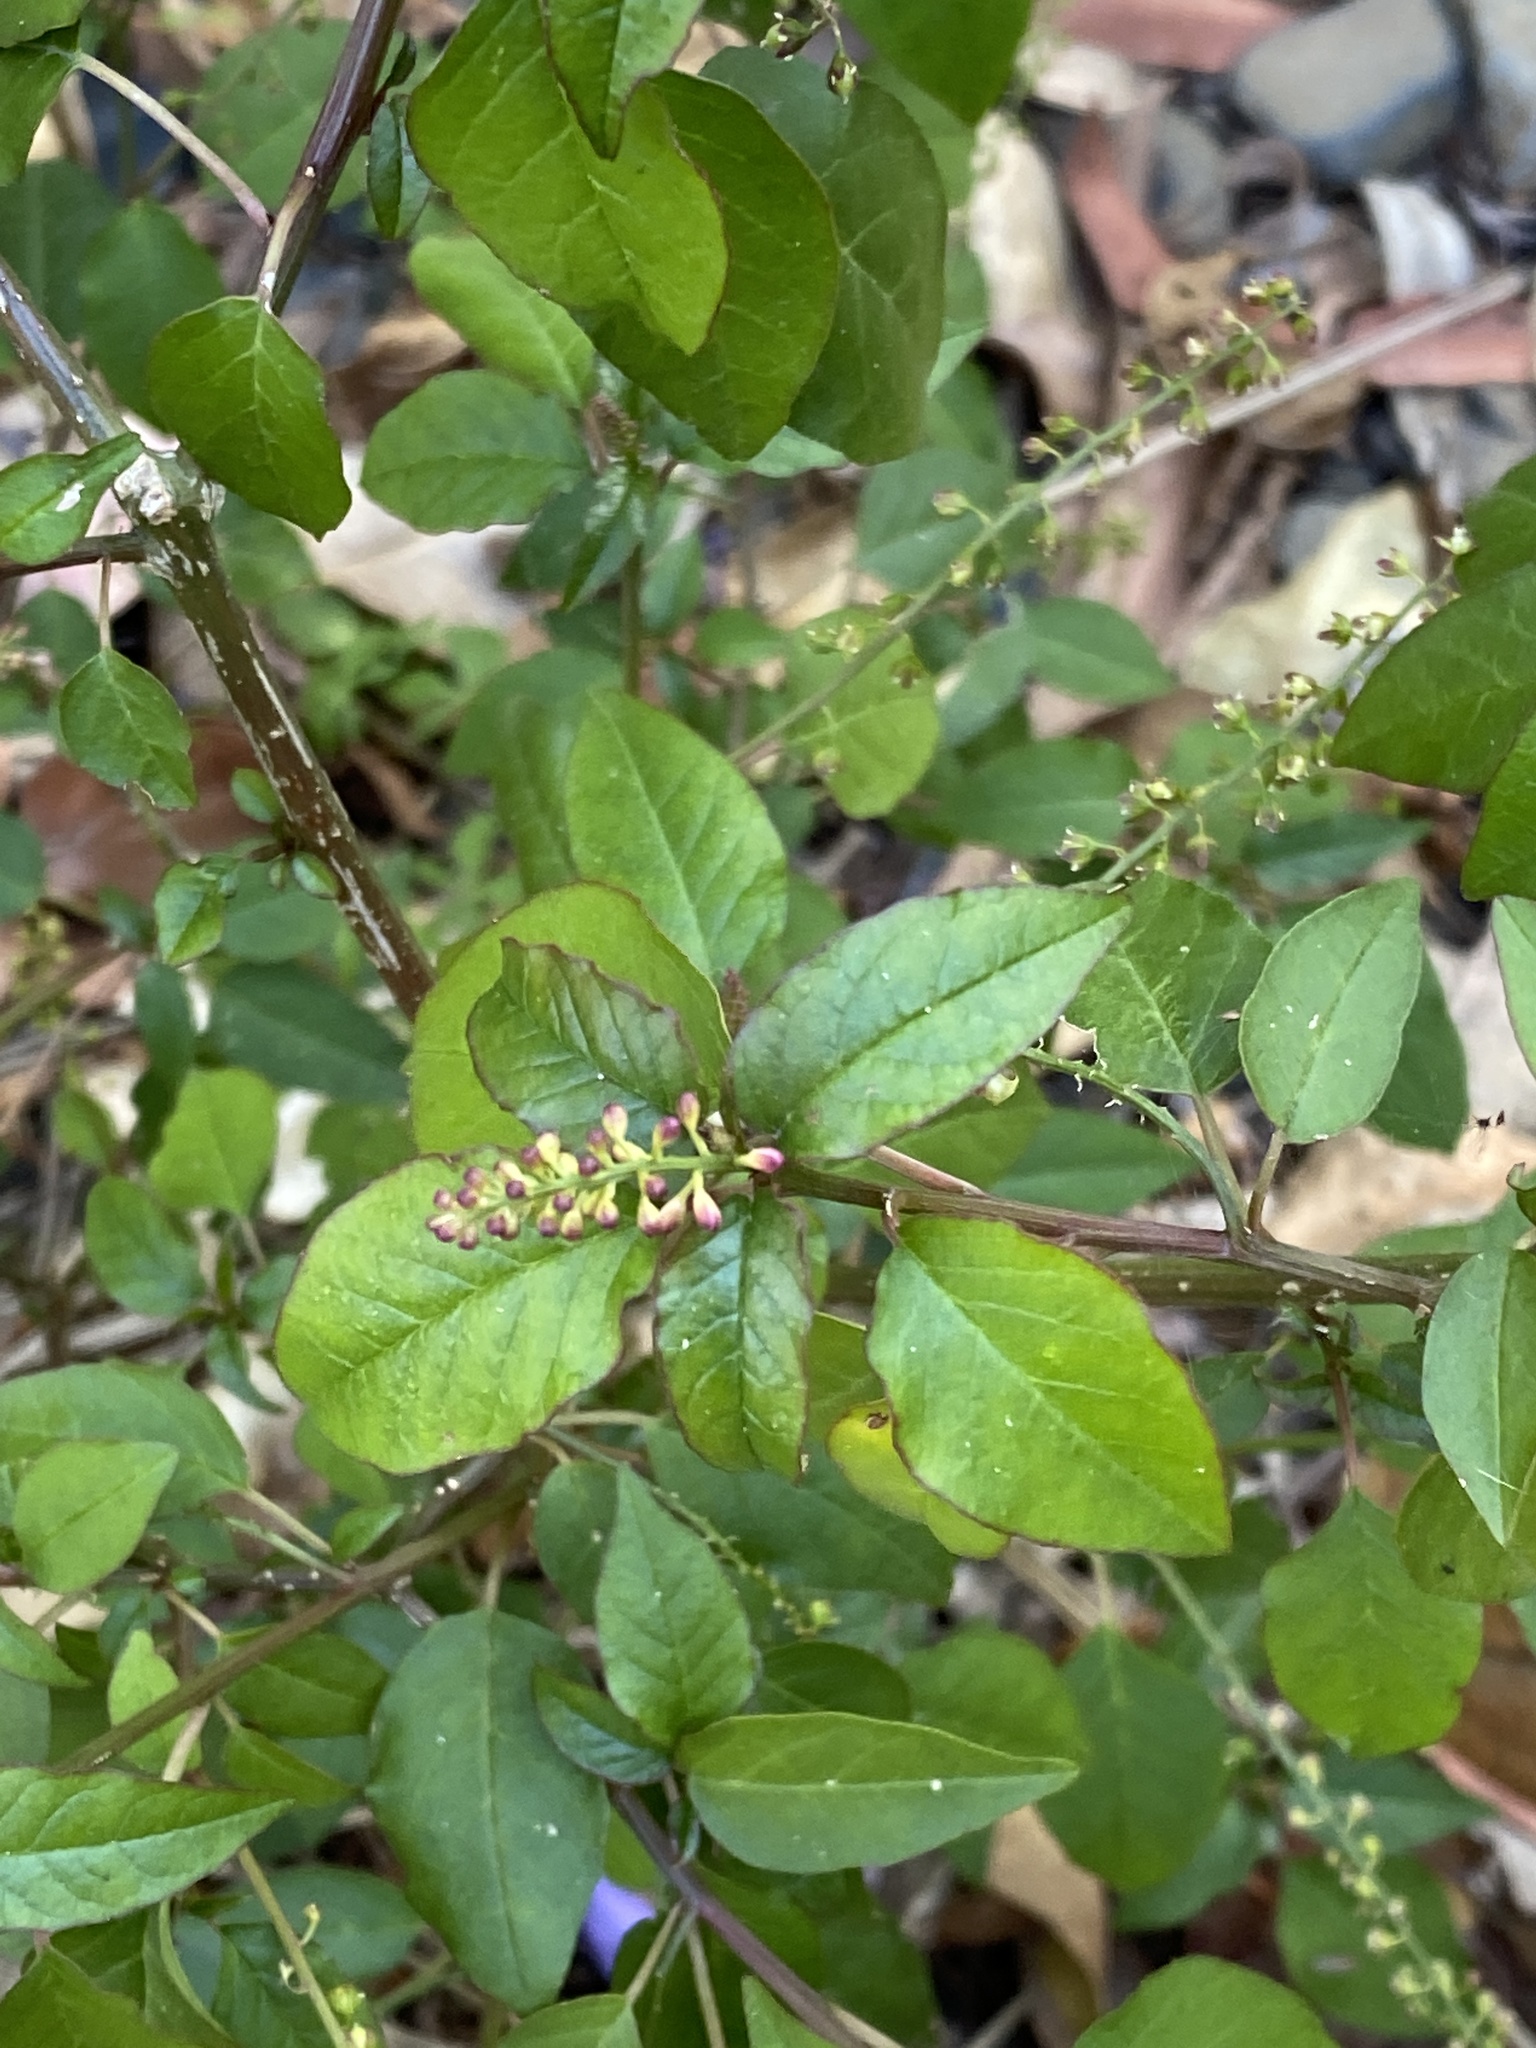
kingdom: Plantae
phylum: Tracheophyta
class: Magnoliopsida
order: Caryophyllales
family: Phytolaccaceae
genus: Rivina
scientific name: Rivina humilis
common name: Rougeplant
